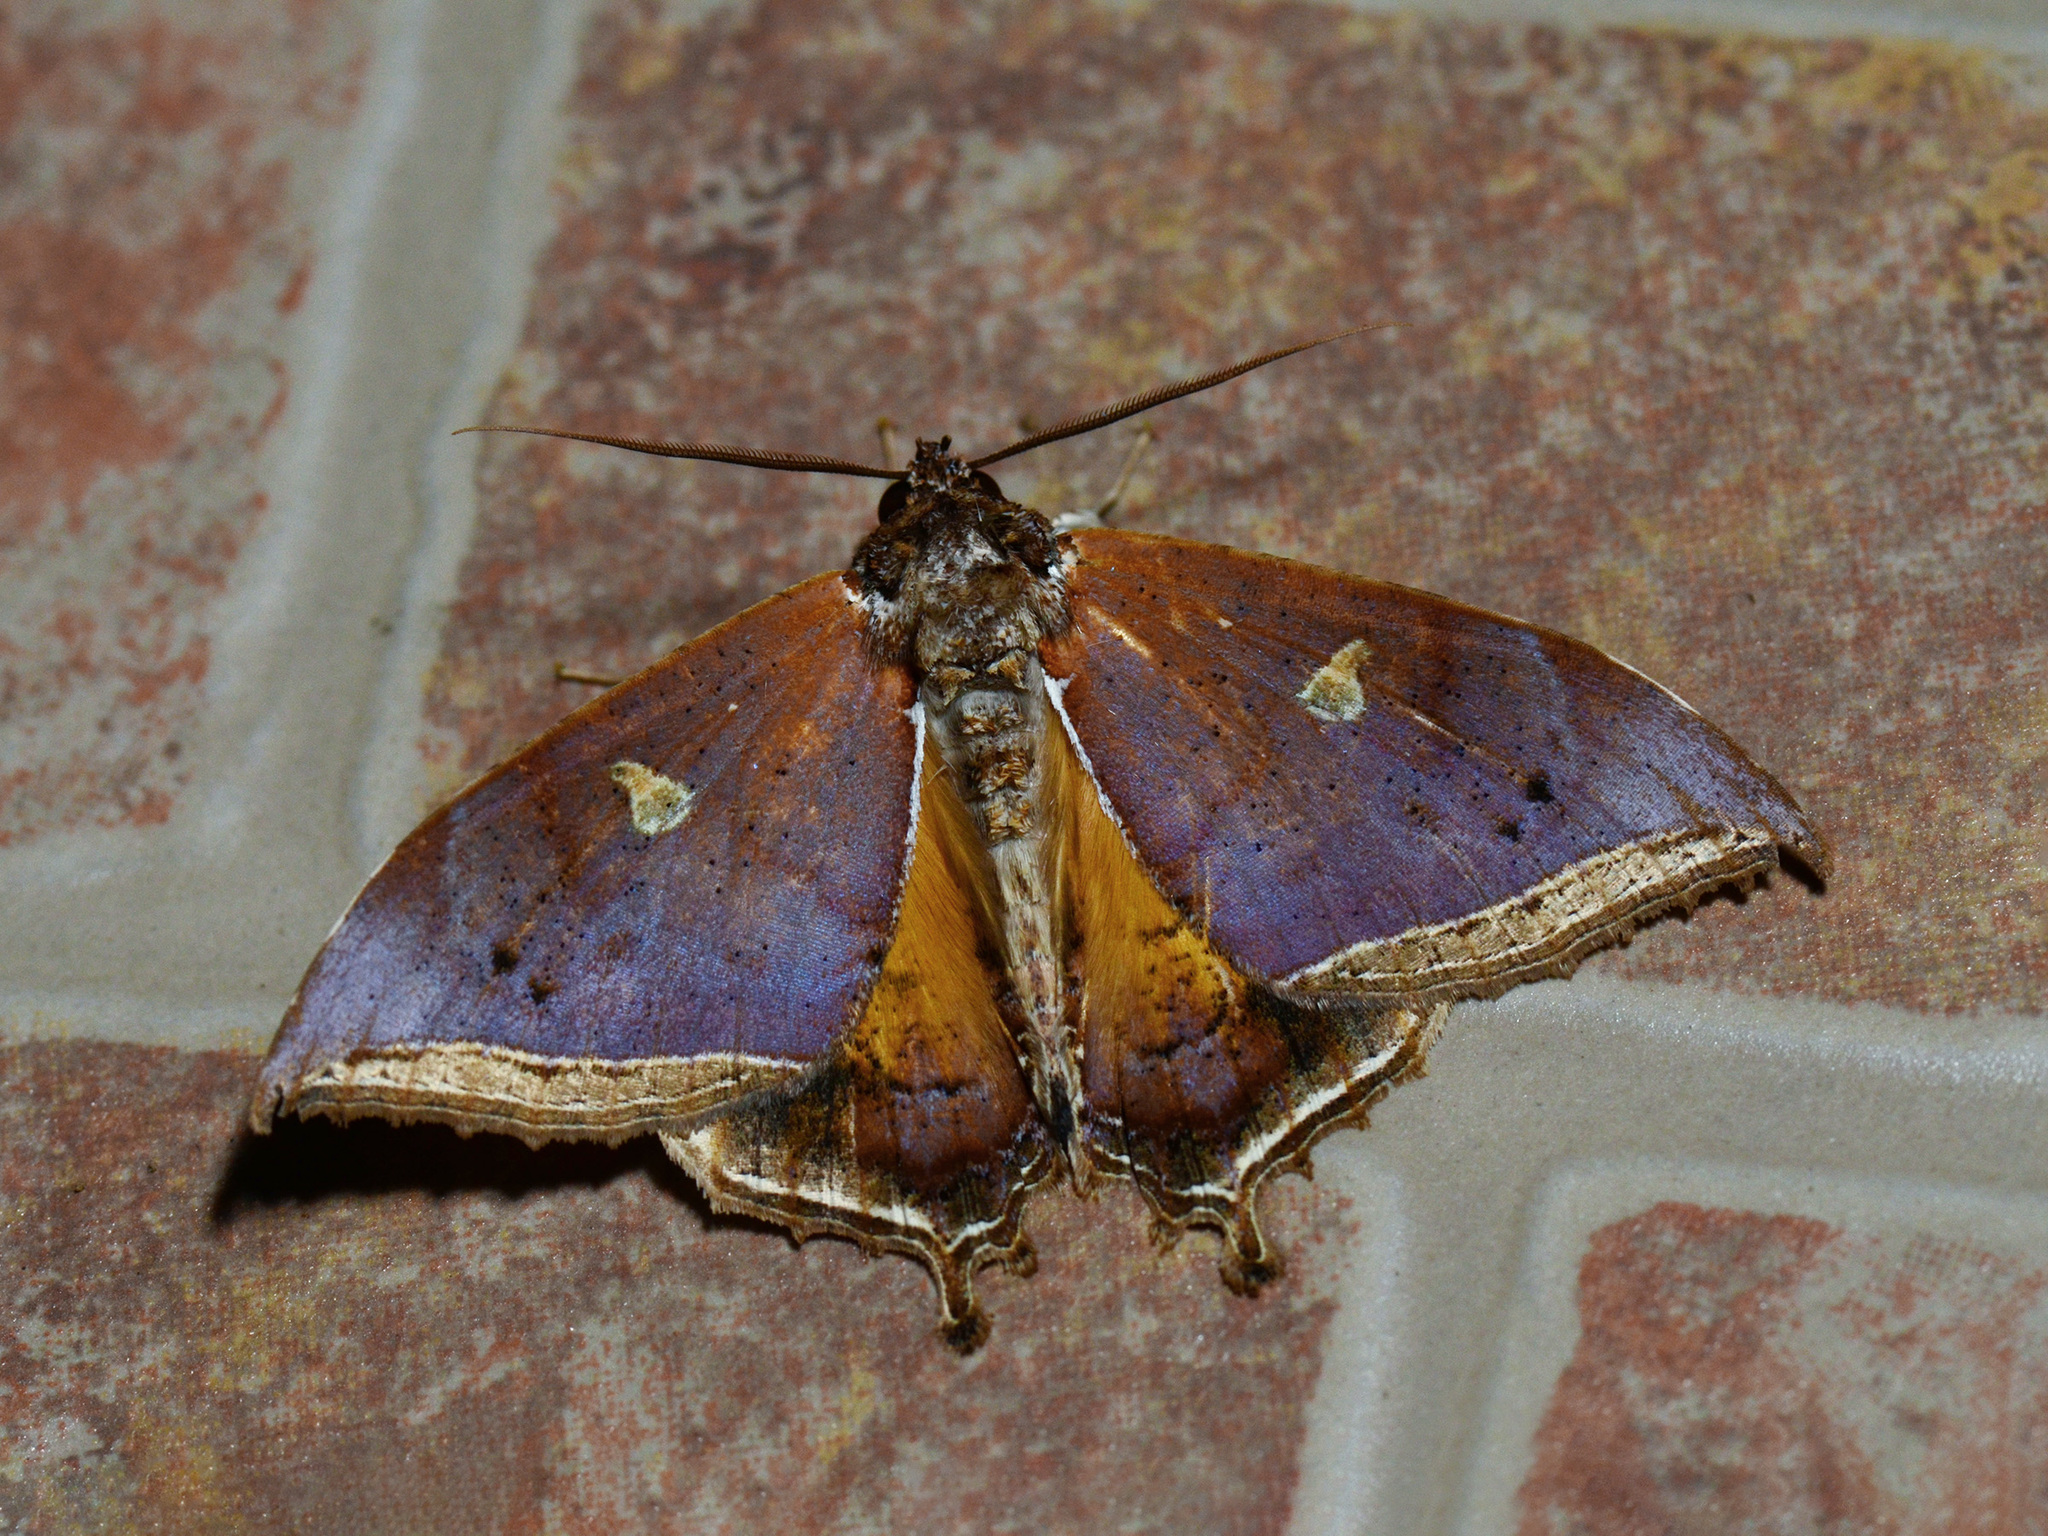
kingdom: Animalia
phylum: Arthropoda
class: Insecta
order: Lepidoptera
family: Erebidae
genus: Pterocyclophora
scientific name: Pterocyclophora pictimargo
